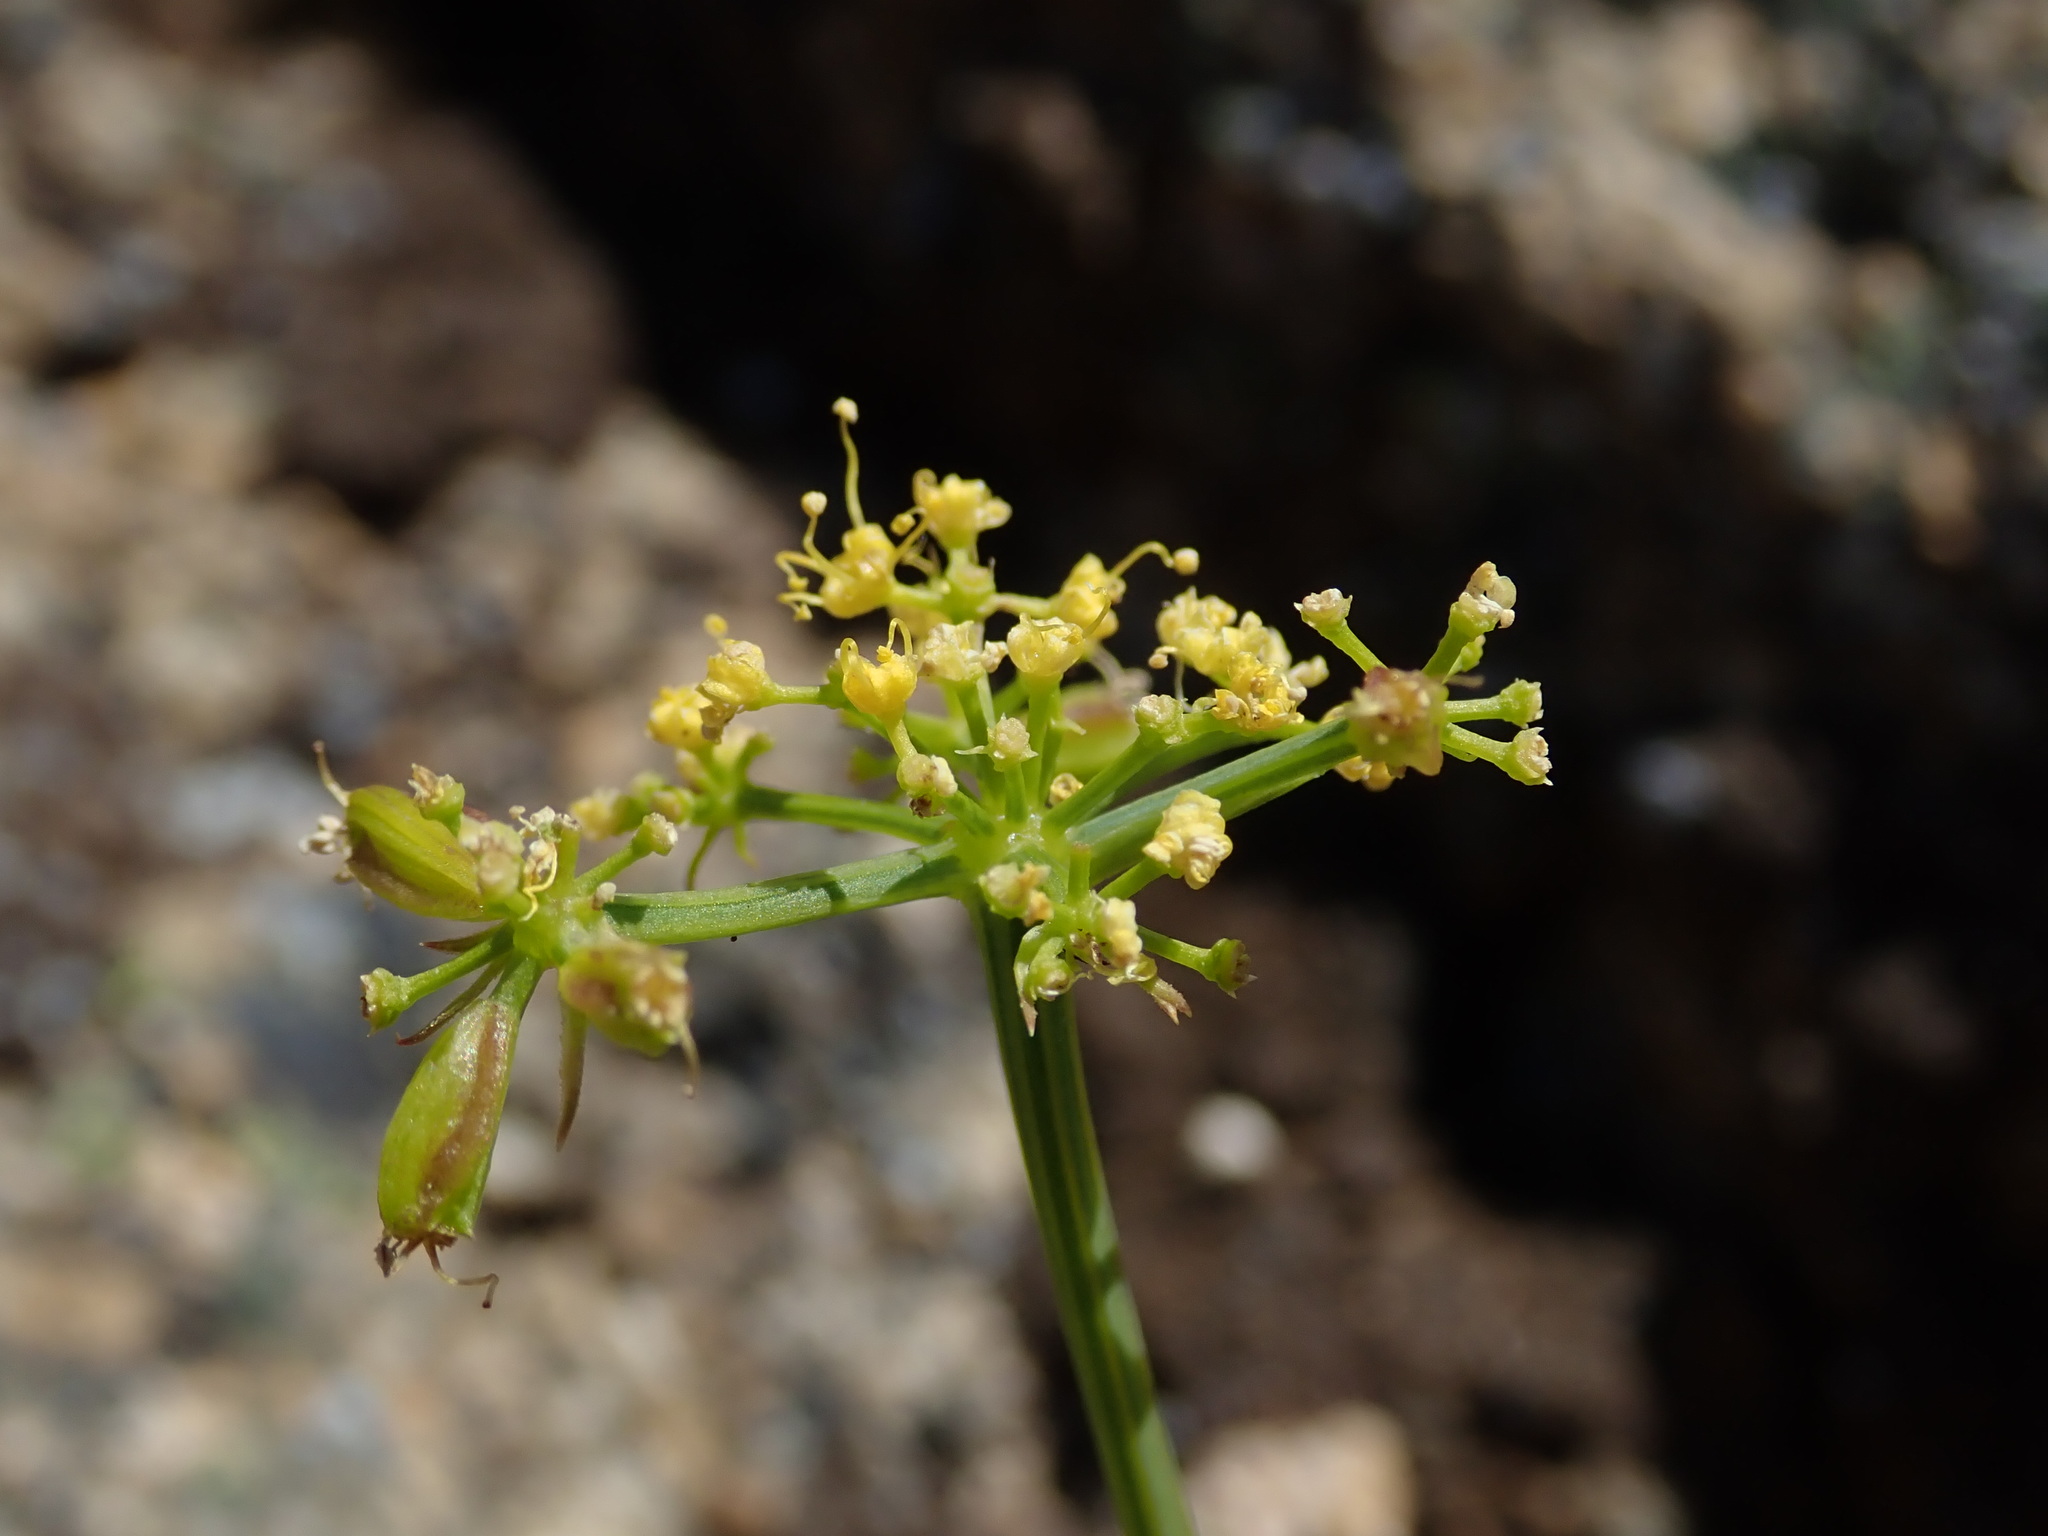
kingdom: Plantae
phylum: Tracheophyta
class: Magnoliopsida
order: Apiales
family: Apiaceae
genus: Lomatium
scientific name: Lomatium brandegeei
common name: Brandegee's desert-parsley
